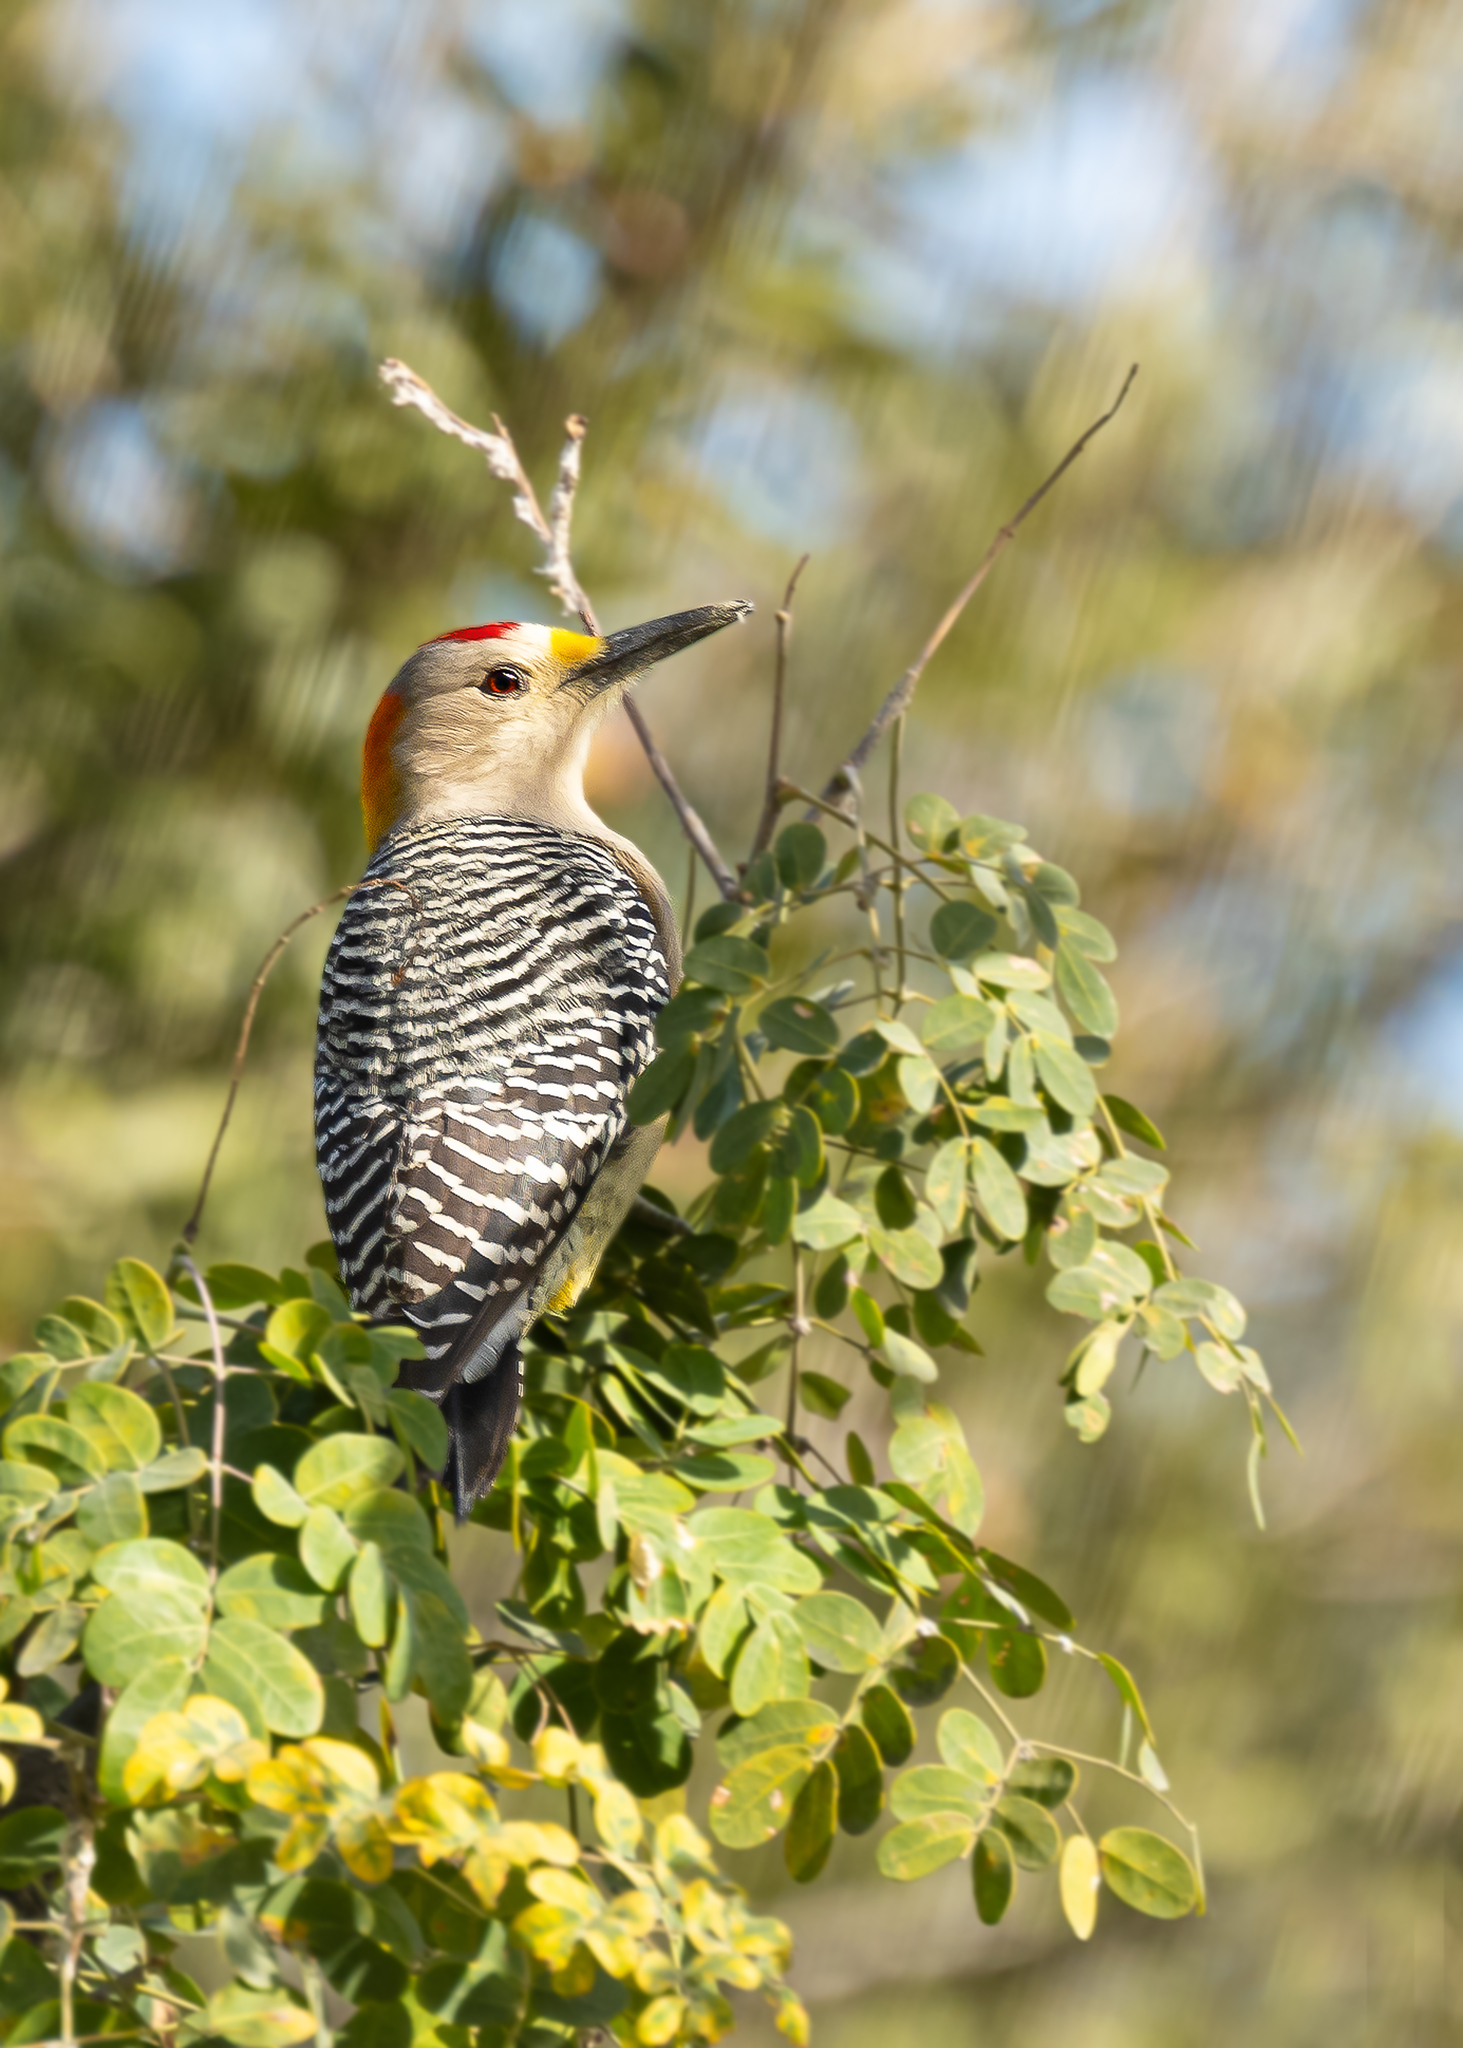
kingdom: Animalia
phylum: Chordata
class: Aves
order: Piciformes
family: Picidae
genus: Melanerpes
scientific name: Melanerpes aurifrons
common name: Golden-fronted woodpecker
